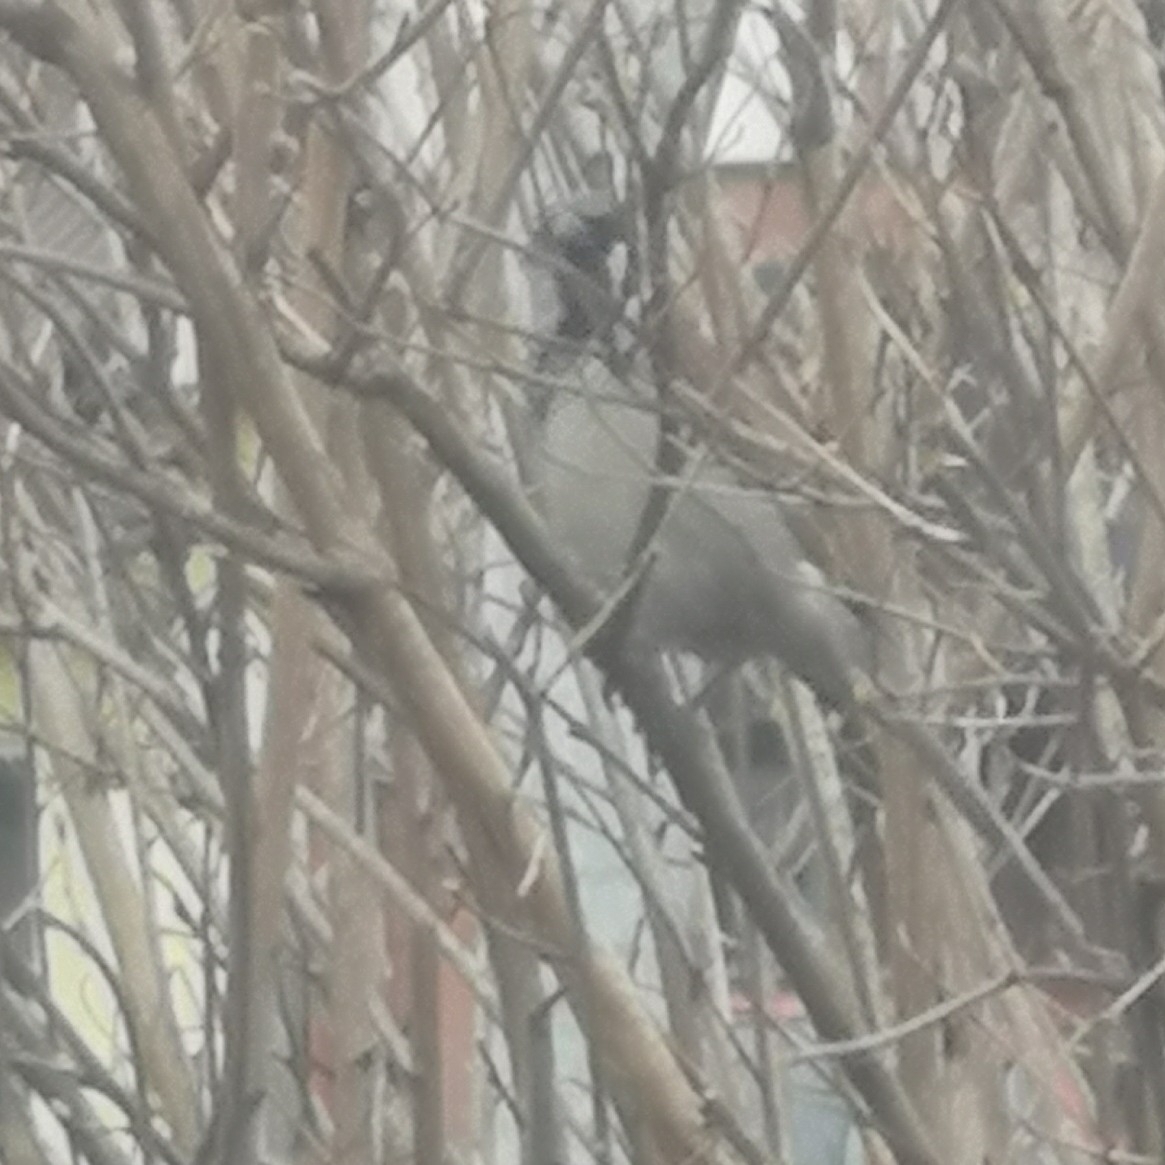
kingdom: Animalia
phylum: Chordata
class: Aves
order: Passeriformes
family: Passeridae
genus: Passer
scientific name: Passer domesticus
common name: House sparrow
